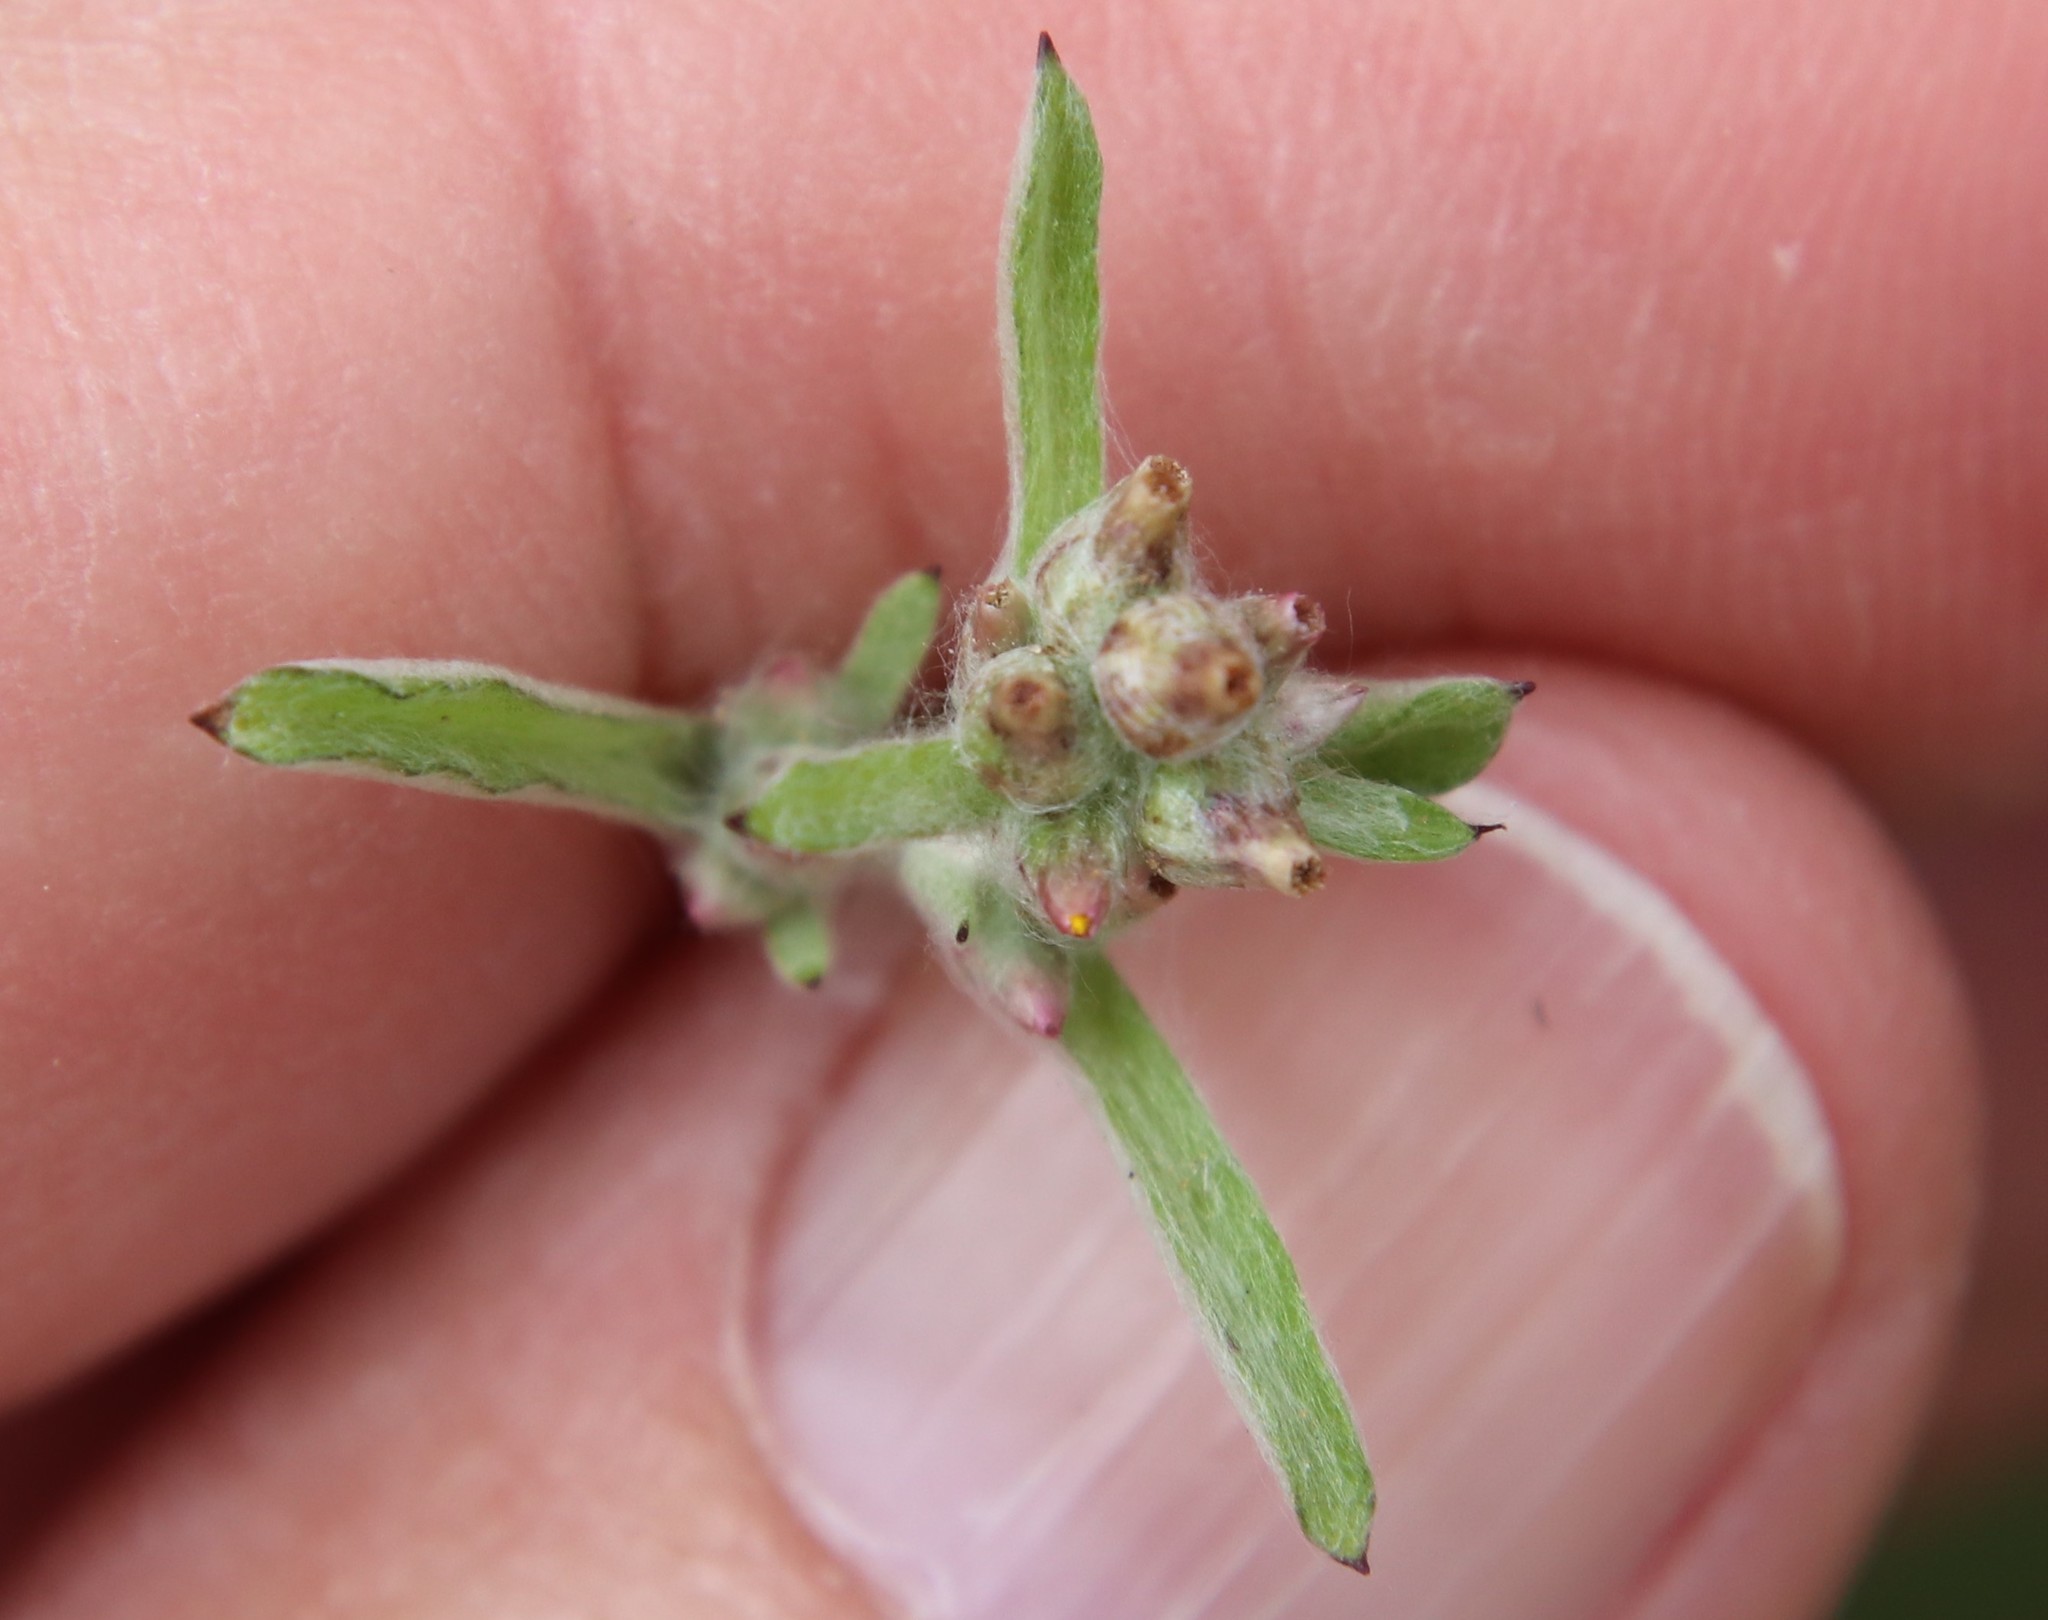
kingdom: Plantae
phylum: Tracheophyta
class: Magnoliopsida
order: Asterales
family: Asteraceae
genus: Gamochaeta
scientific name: Gamochaeta stagnalis
